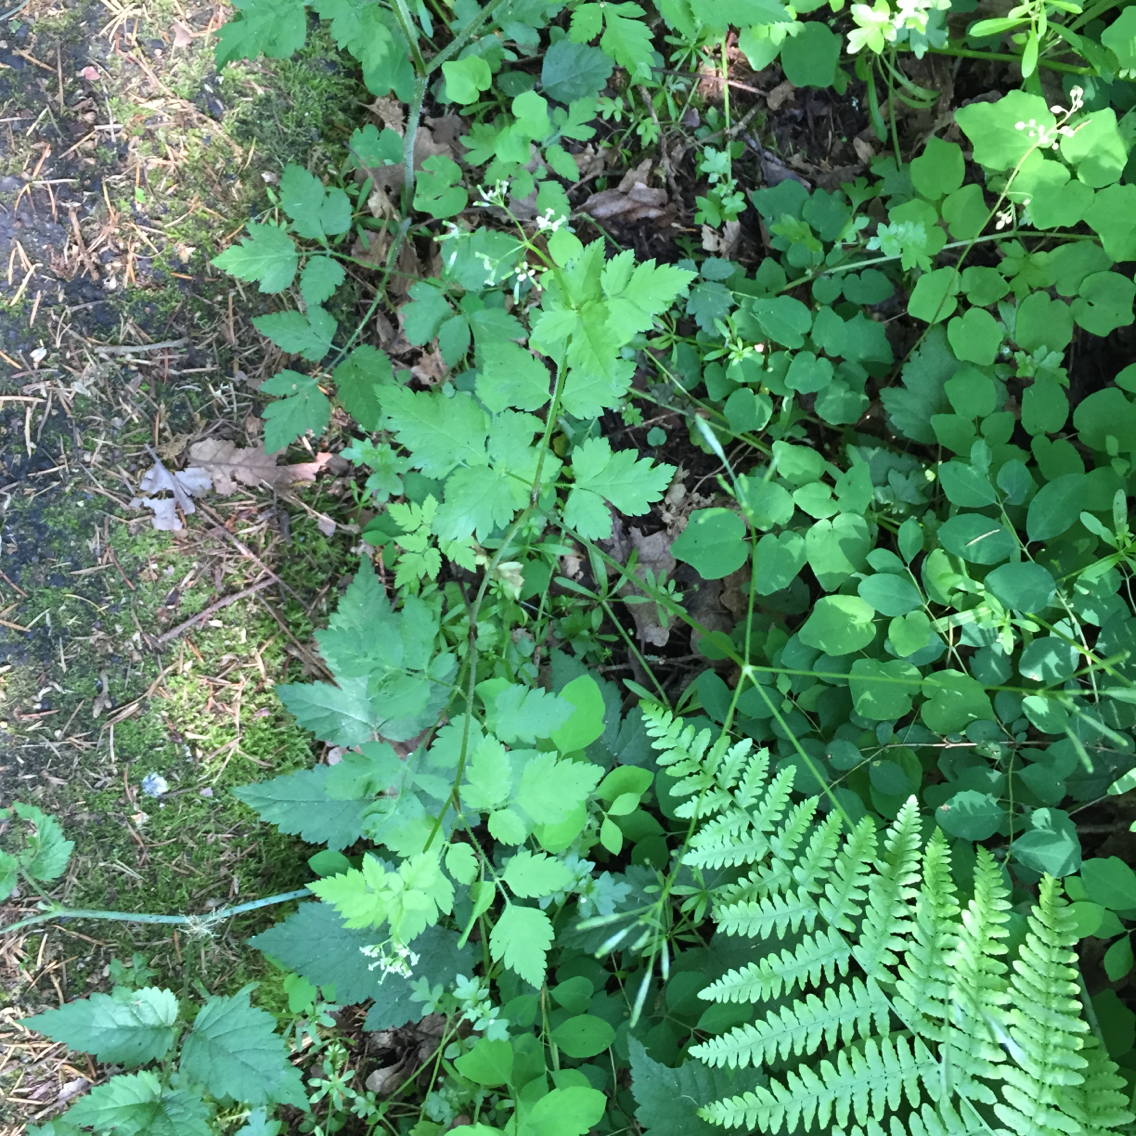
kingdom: Plantae
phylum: Tracheophyta
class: Magnoliopsida
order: Apiales
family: Apiaceae
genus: Osmorhiza
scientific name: Osmorhiza berteroi
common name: Mountain sweet cicely
